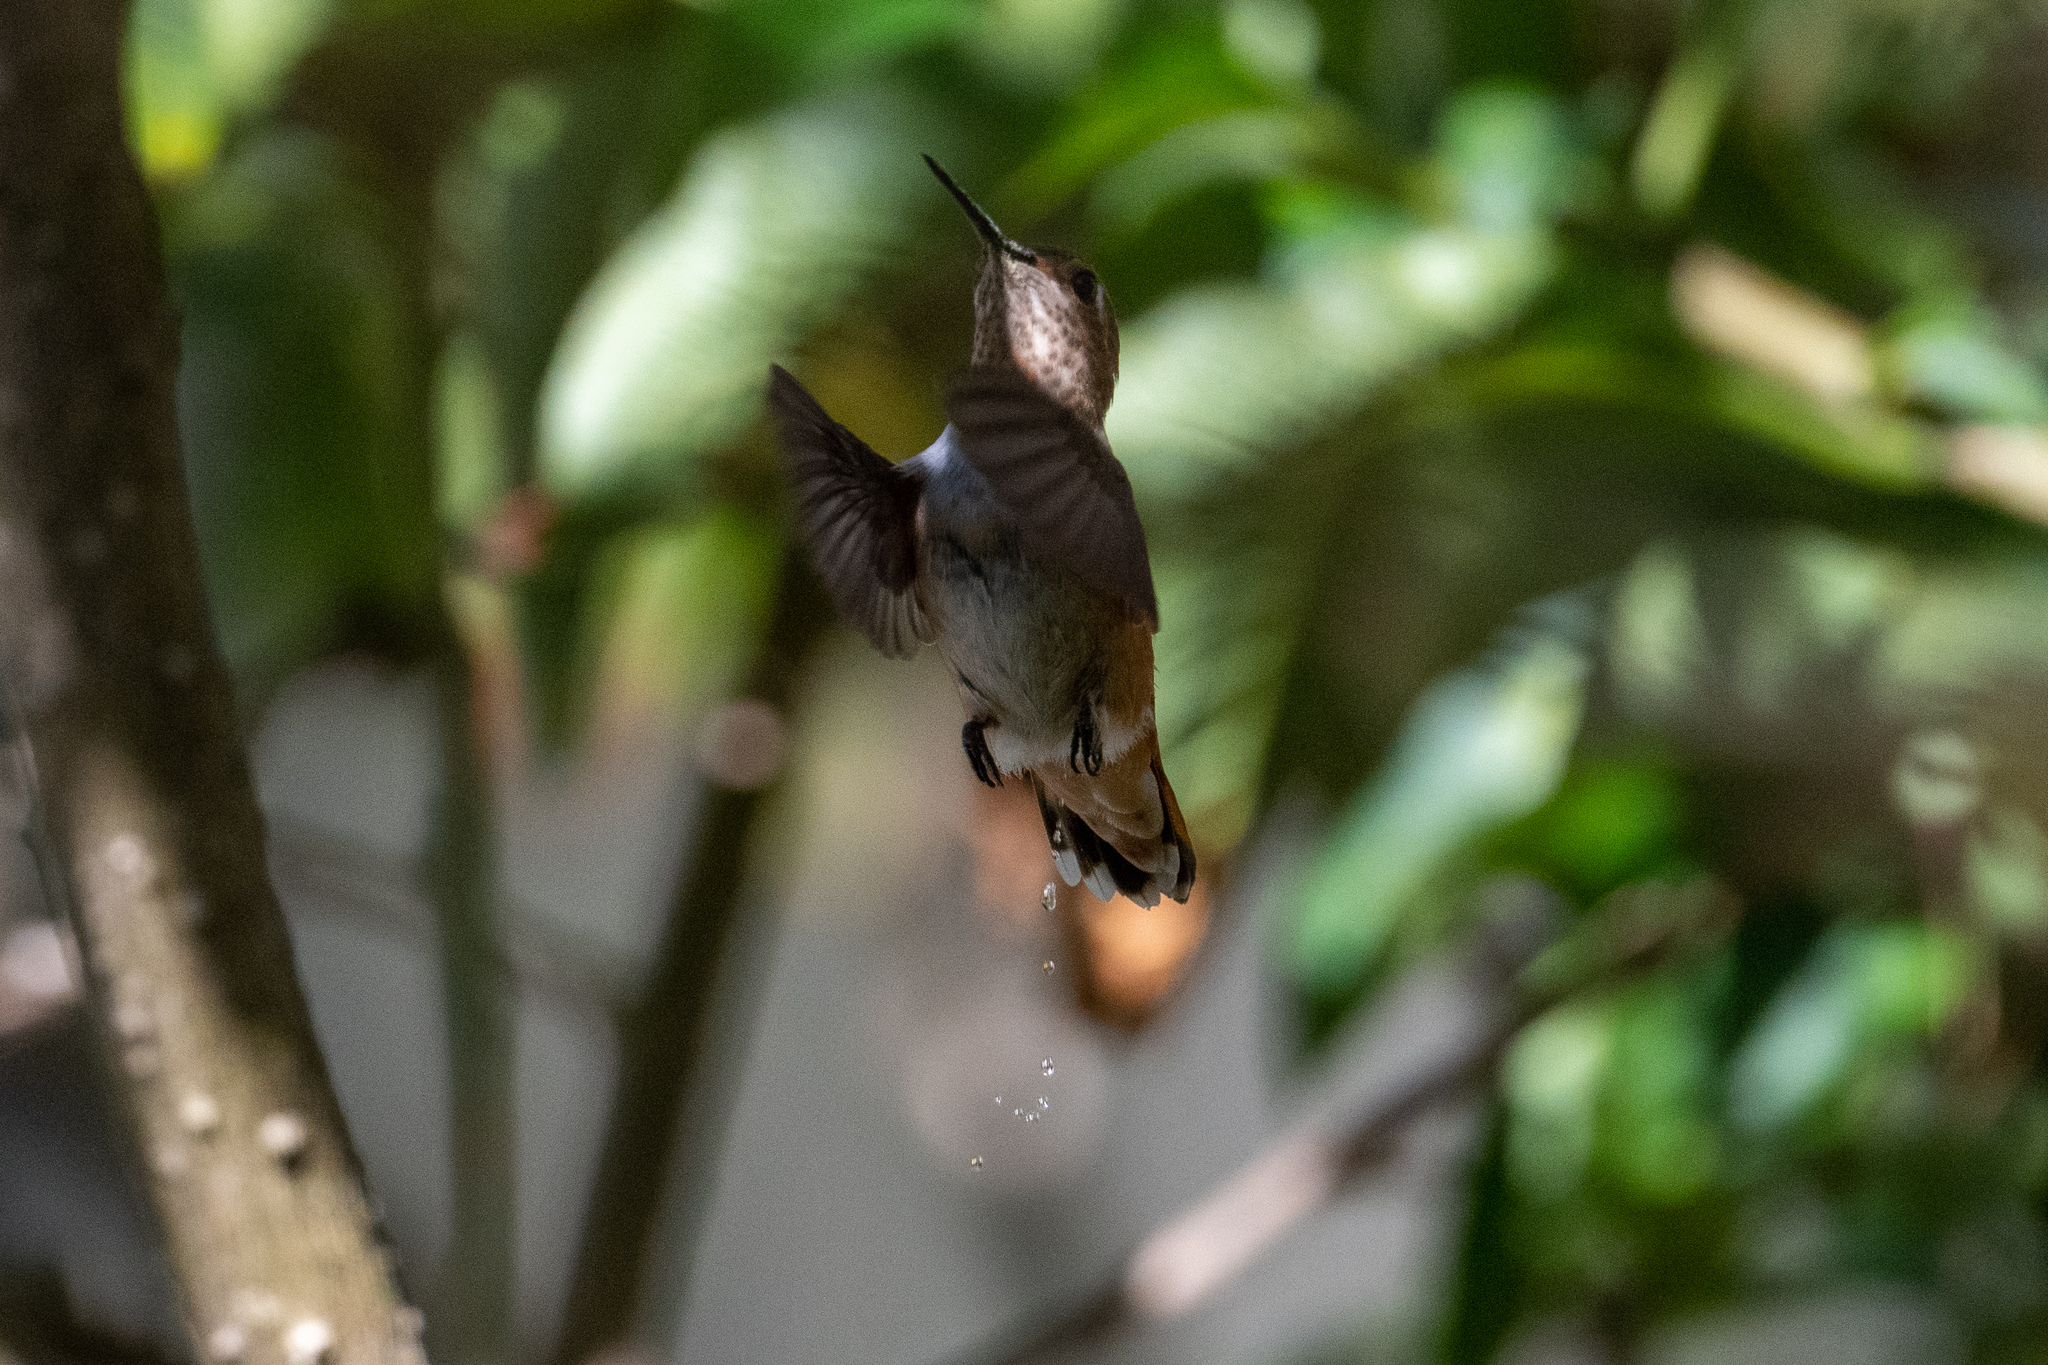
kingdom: Animalia
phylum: Chordata
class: Aves
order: Apodiformes
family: Trochilidae
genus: Selasphorus
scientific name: Selasphorus sasin
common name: Allen's hummingbird
